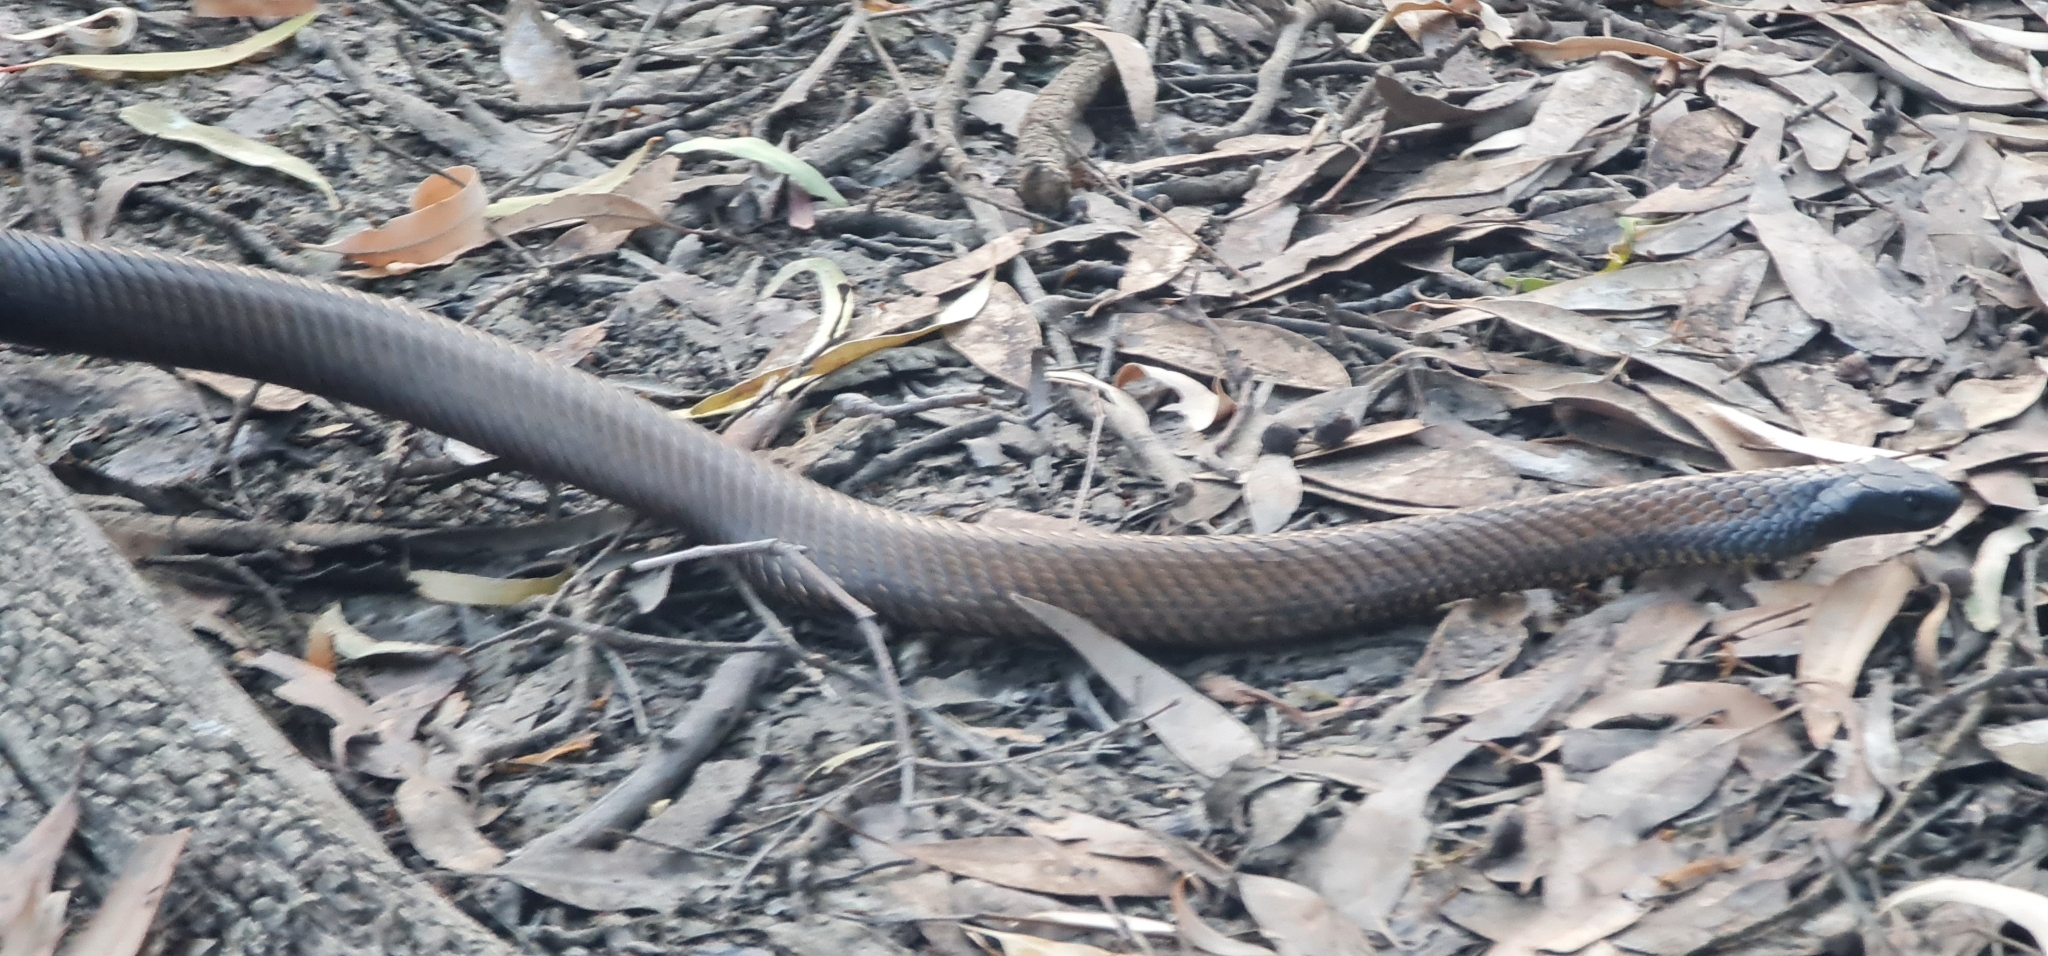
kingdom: Animalia
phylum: Chordata
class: Squamata
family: Elapidae
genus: Notechis
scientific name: Notechis scutatus
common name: Mainland tiger snake
